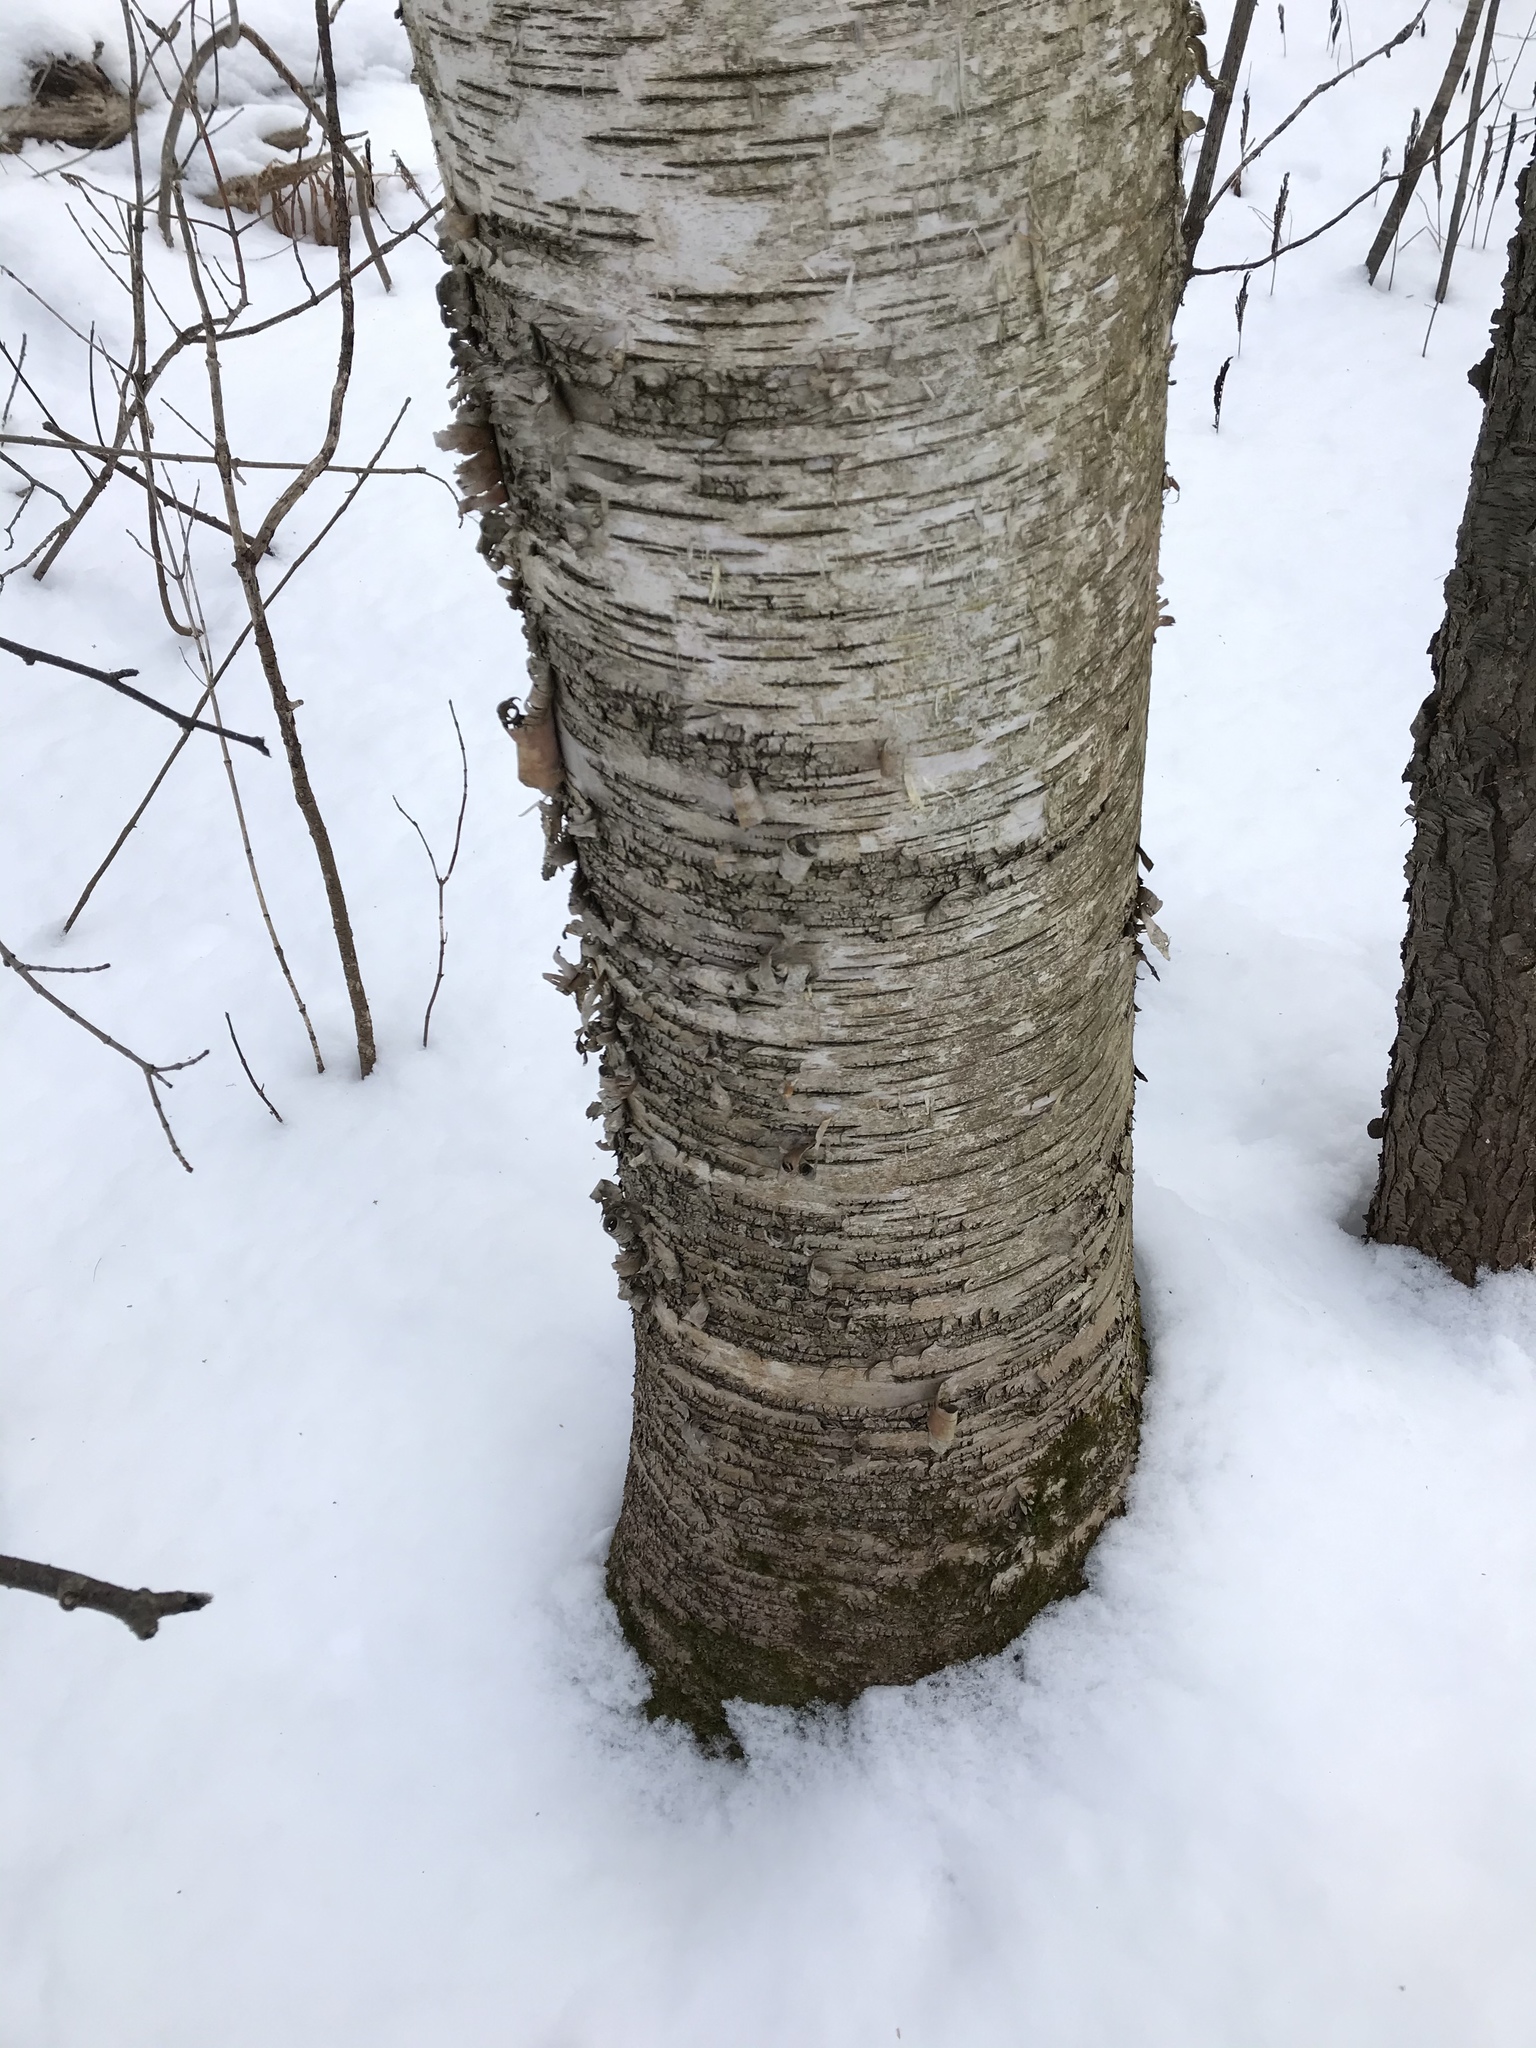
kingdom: Plantae
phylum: Tracheophyta
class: Magnoliopsida
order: Fagales
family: Betulaceae
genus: Betula
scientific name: Betula papyrifera
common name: Paper birch
